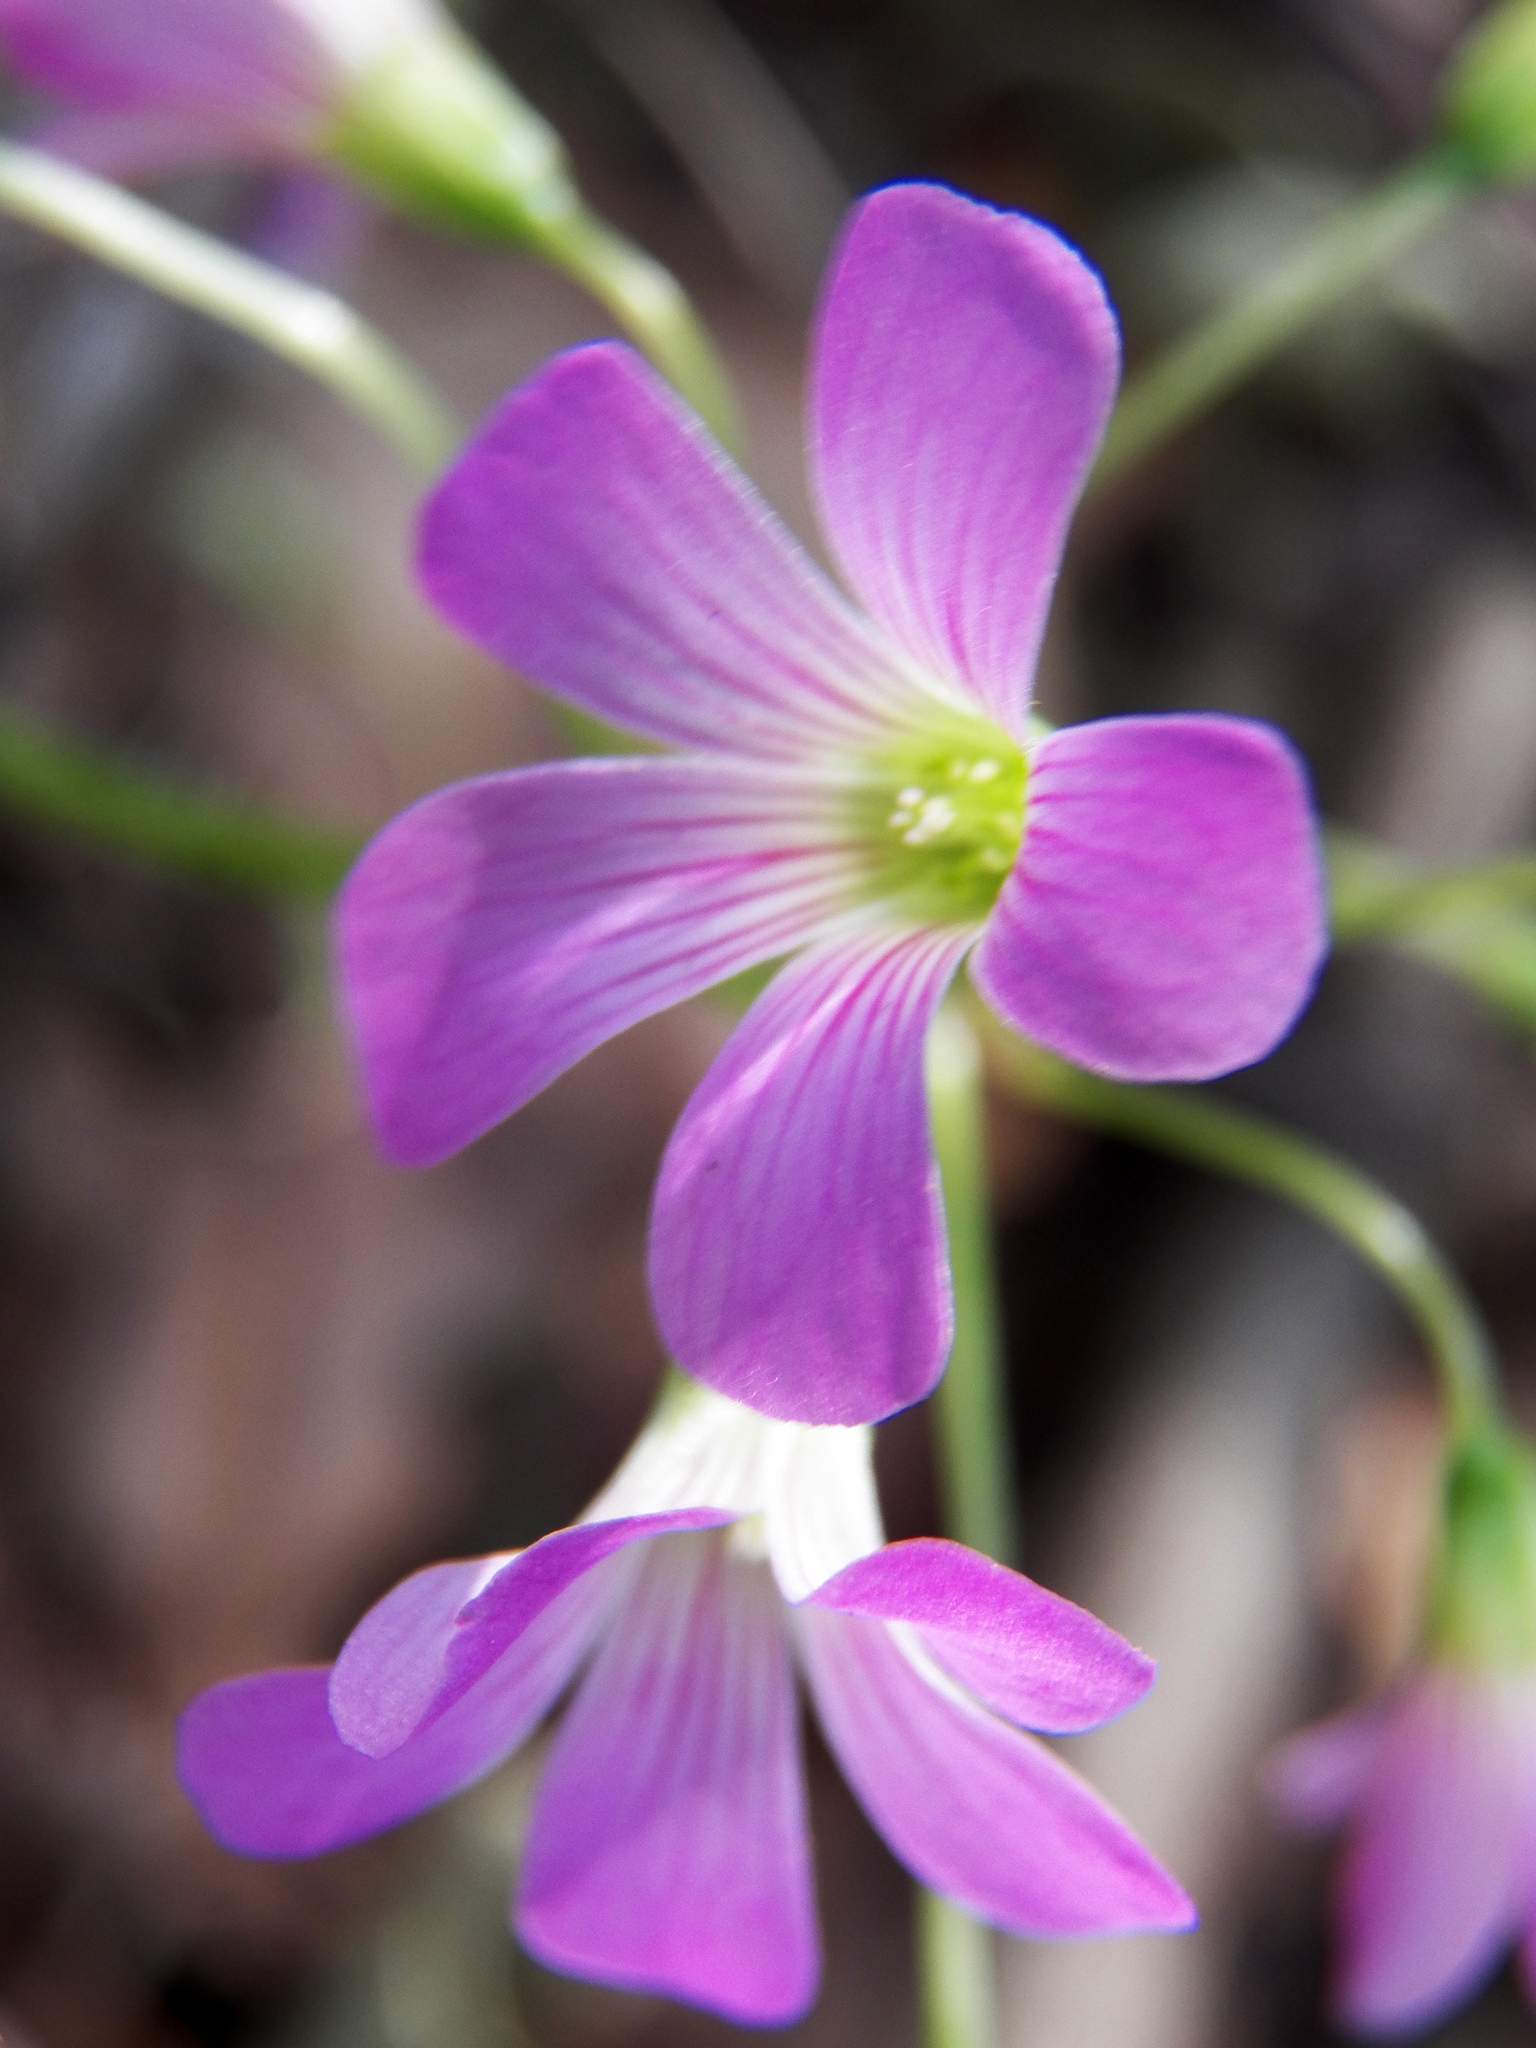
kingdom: Plantae
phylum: Tracheophyta
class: Magnoliopsida
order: Oxalidales
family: Oxalidaceae
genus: Oxalis
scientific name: Oxalis debilis
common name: Large-flowered pink-sorrel
